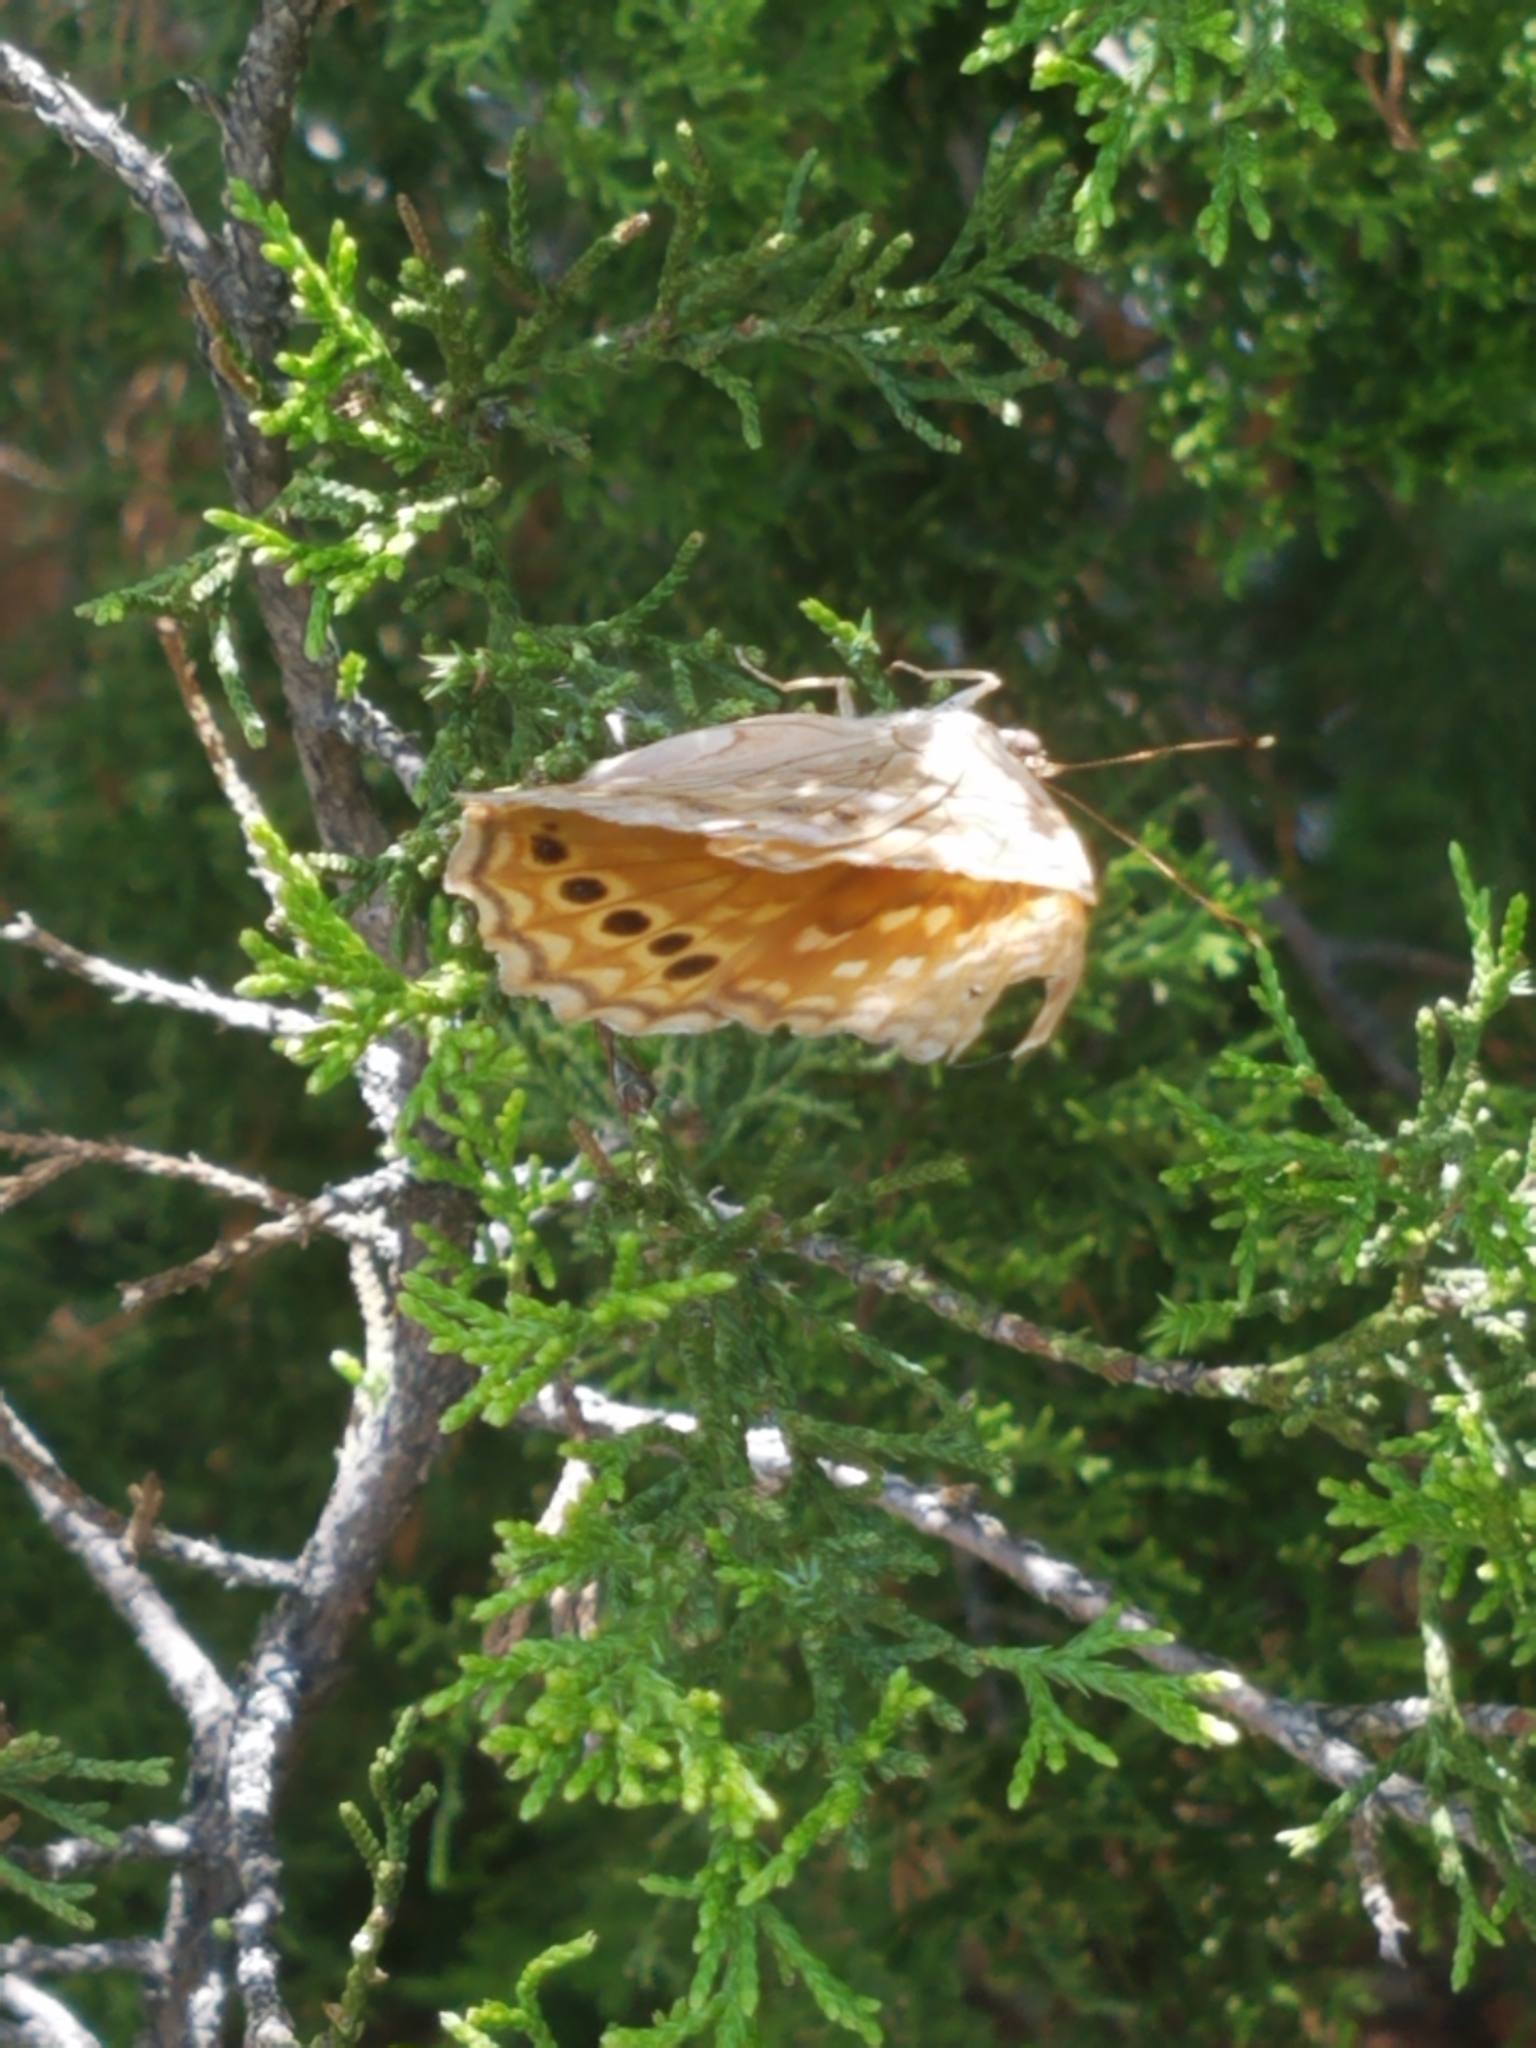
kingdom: Animalia
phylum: Arthropoda
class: Insecta
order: Lepidoptera
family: Nymphalidae
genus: Asterocampa
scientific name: Asterocampa clyton
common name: Tawny emperor
